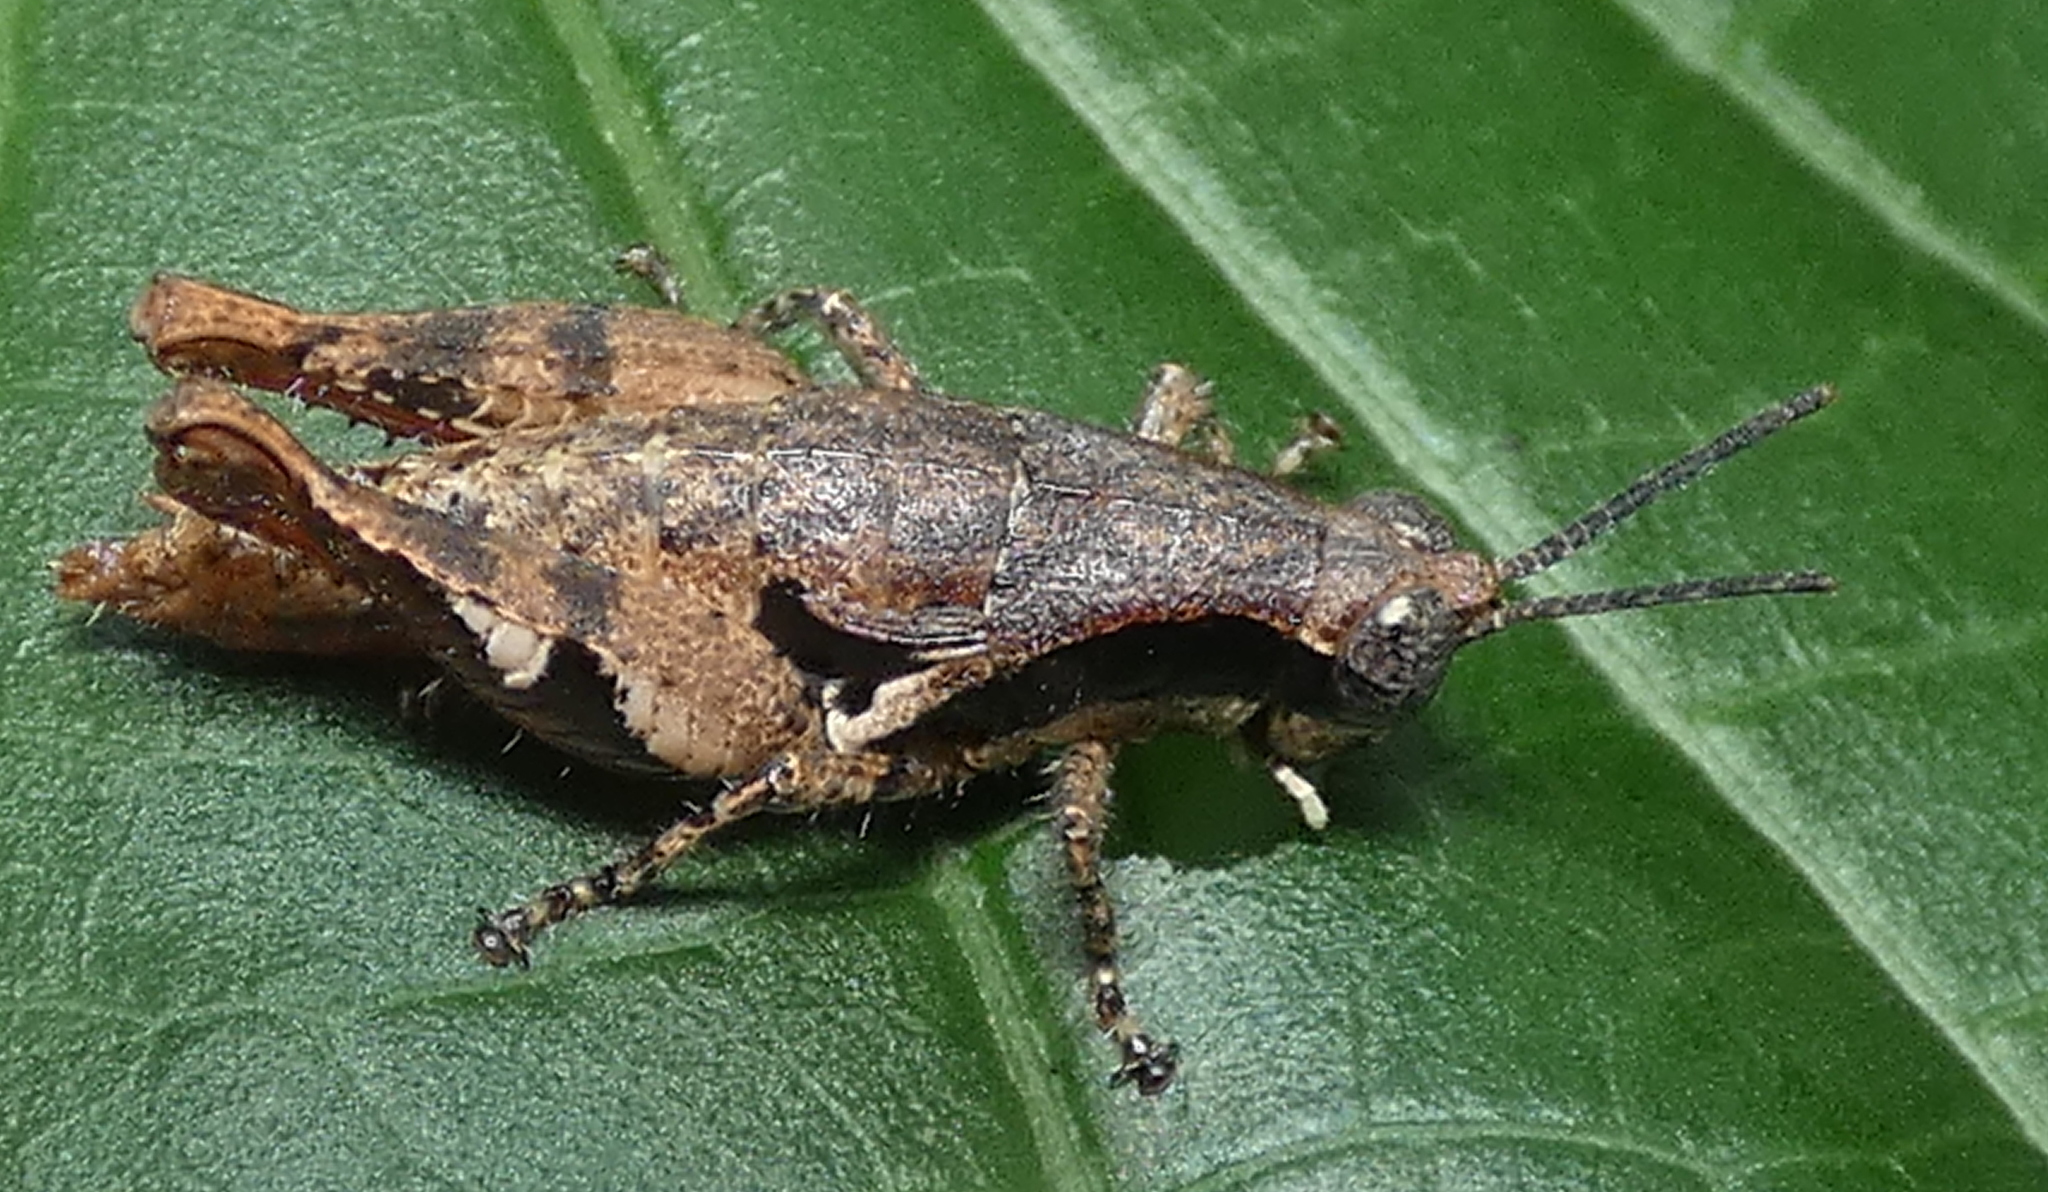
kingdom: Animalia
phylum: Arthropoda
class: Insecta
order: Orthoptera
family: Acrididae
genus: Eujivarus
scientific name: Eujivarus meridionalis
